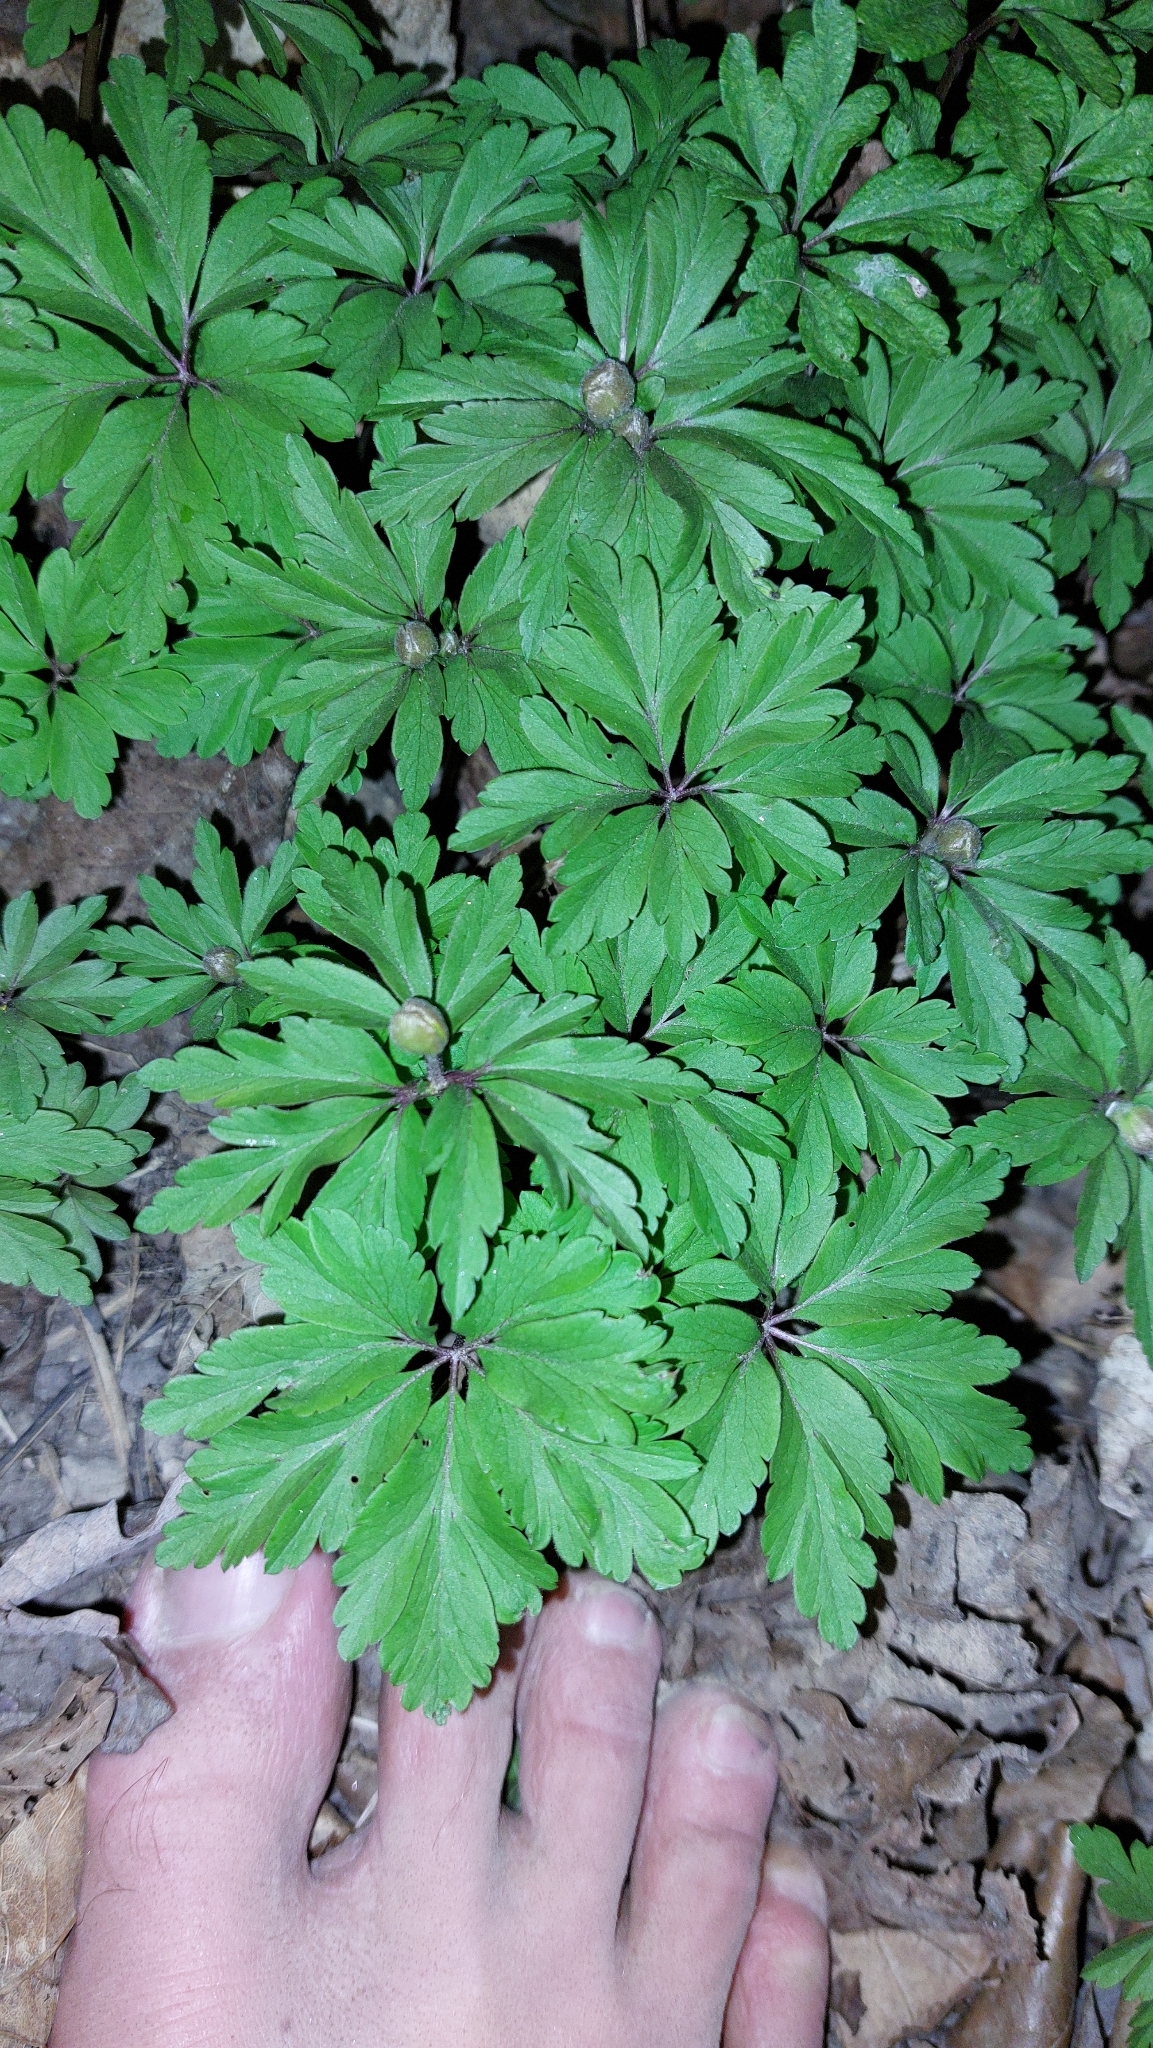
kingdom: Plantae
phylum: Tracheophyta
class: Magnoliopsida
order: Ranunculales
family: Ranunculaceae
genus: Anemone
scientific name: Anemone ranunculoides
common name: Yellow anemone
